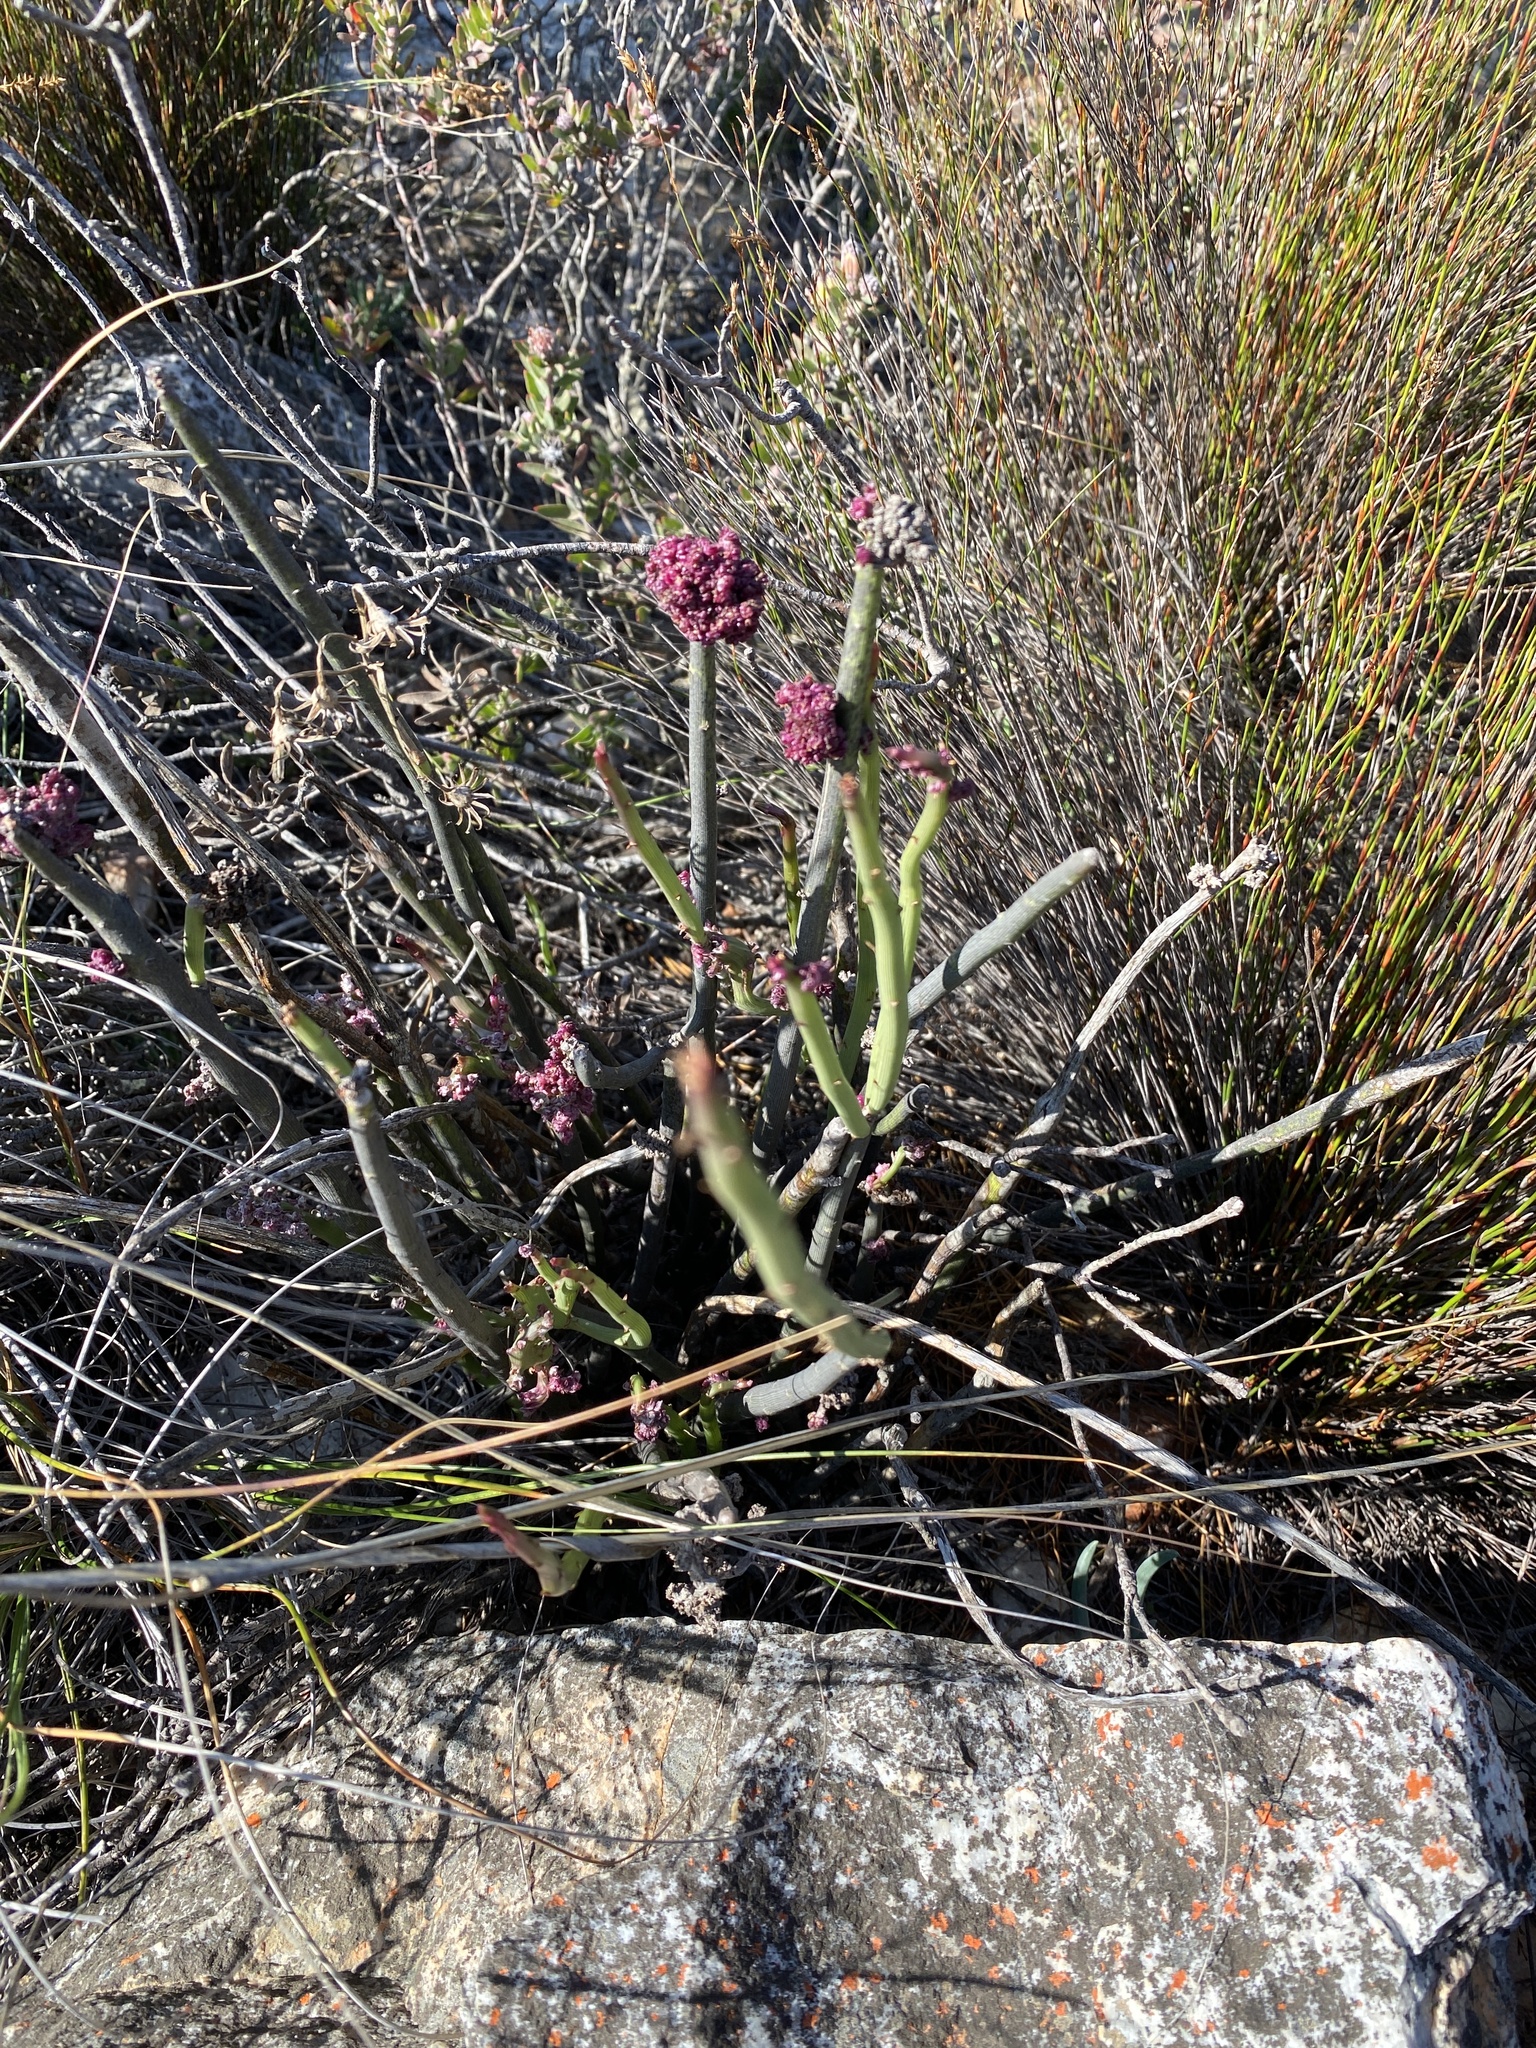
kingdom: Plantae
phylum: Tracheophyta
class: Magnoliopsida
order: Asterales
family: Asteraceae
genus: Senecio
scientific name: Senecio junceus
